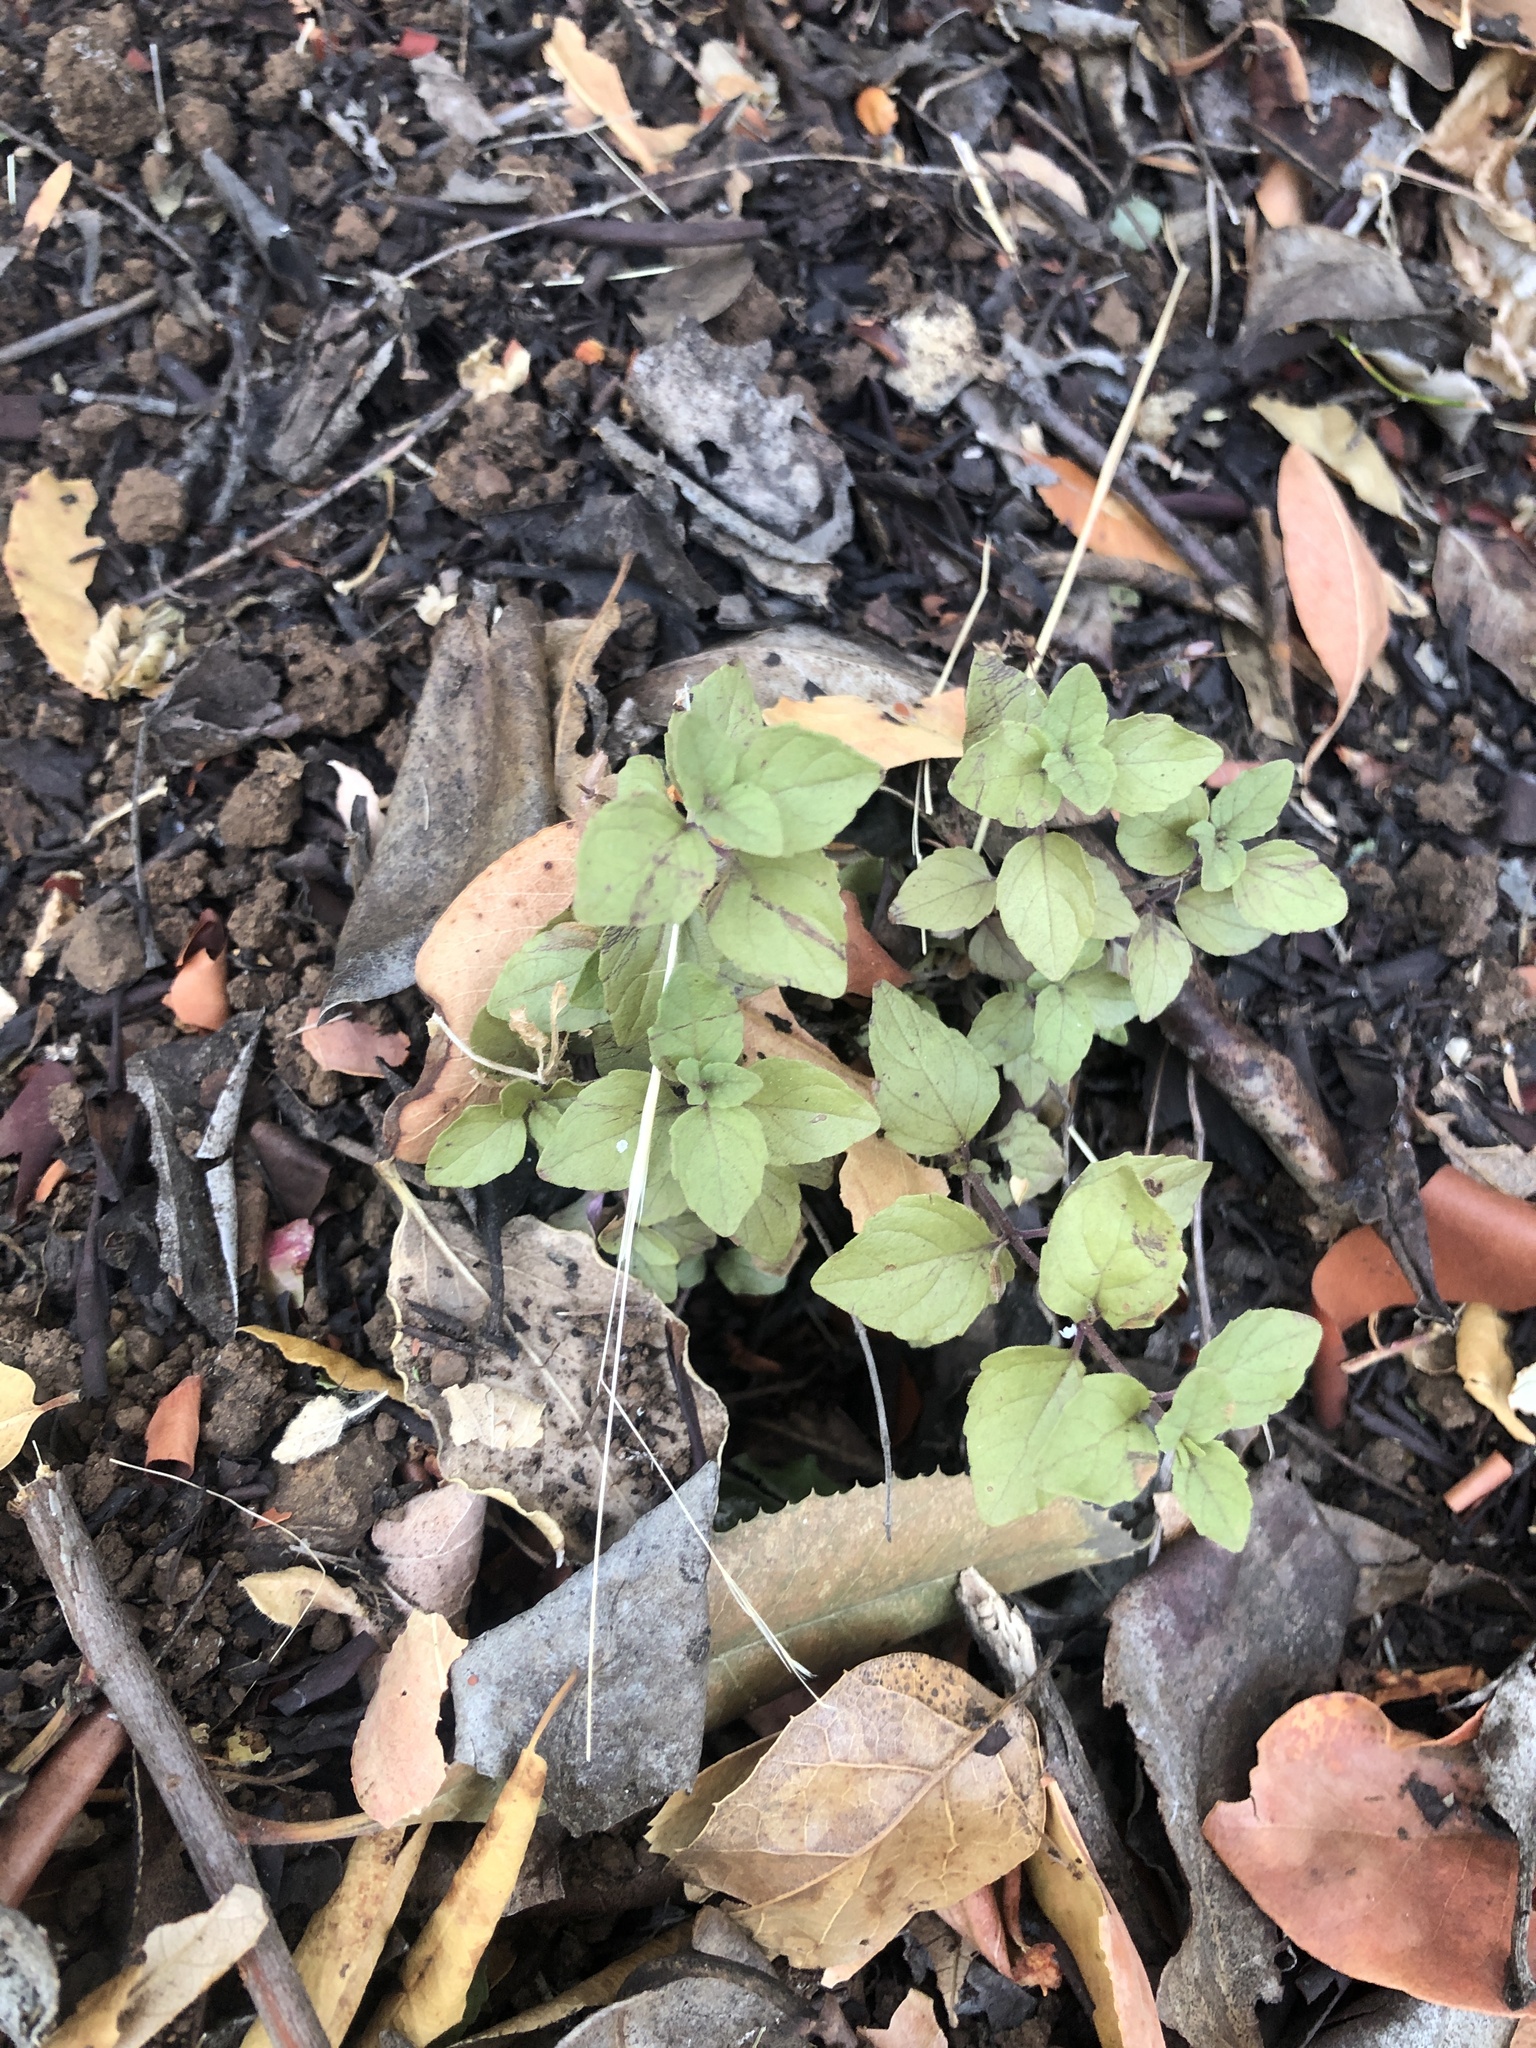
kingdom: Plantae
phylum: Tracheophyta
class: Magnoliopsida
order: Lamiales
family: Lamiaceae
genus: Micromeria
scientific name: Micromeria douglasii
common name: Yerba buena
